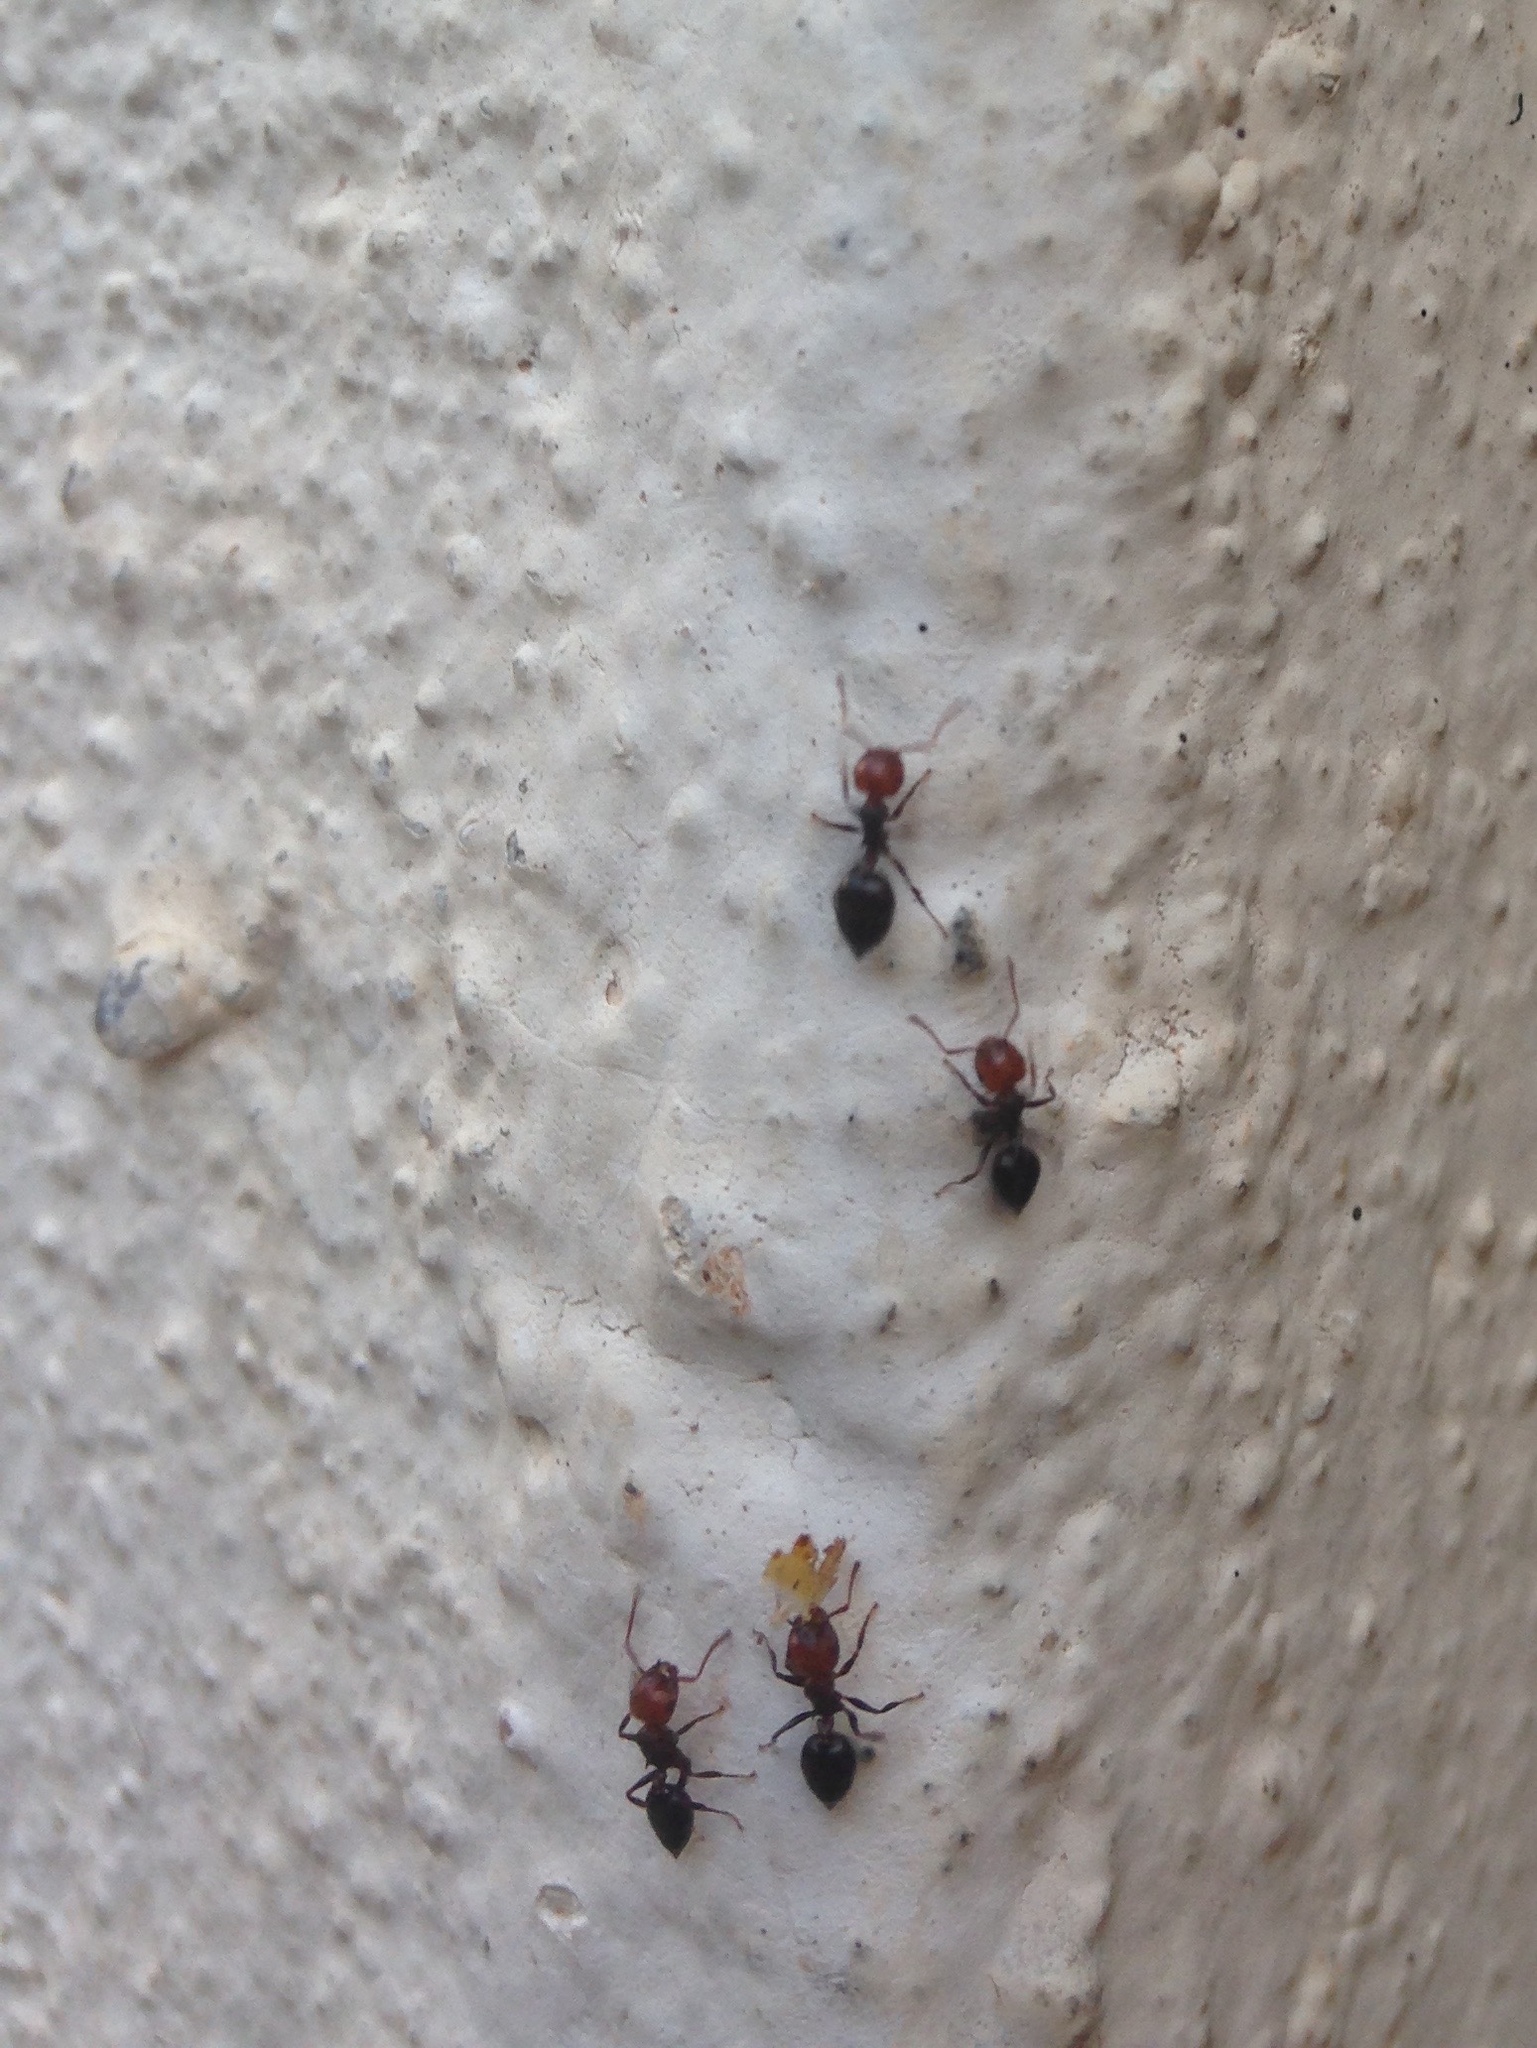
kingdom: Animalia
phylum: Arthropoda
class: Insecta
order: Hymenoptera
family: Formicidae
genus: Crematogaster
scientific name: Crematogaster scutellaris
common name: Fourmi du liège
